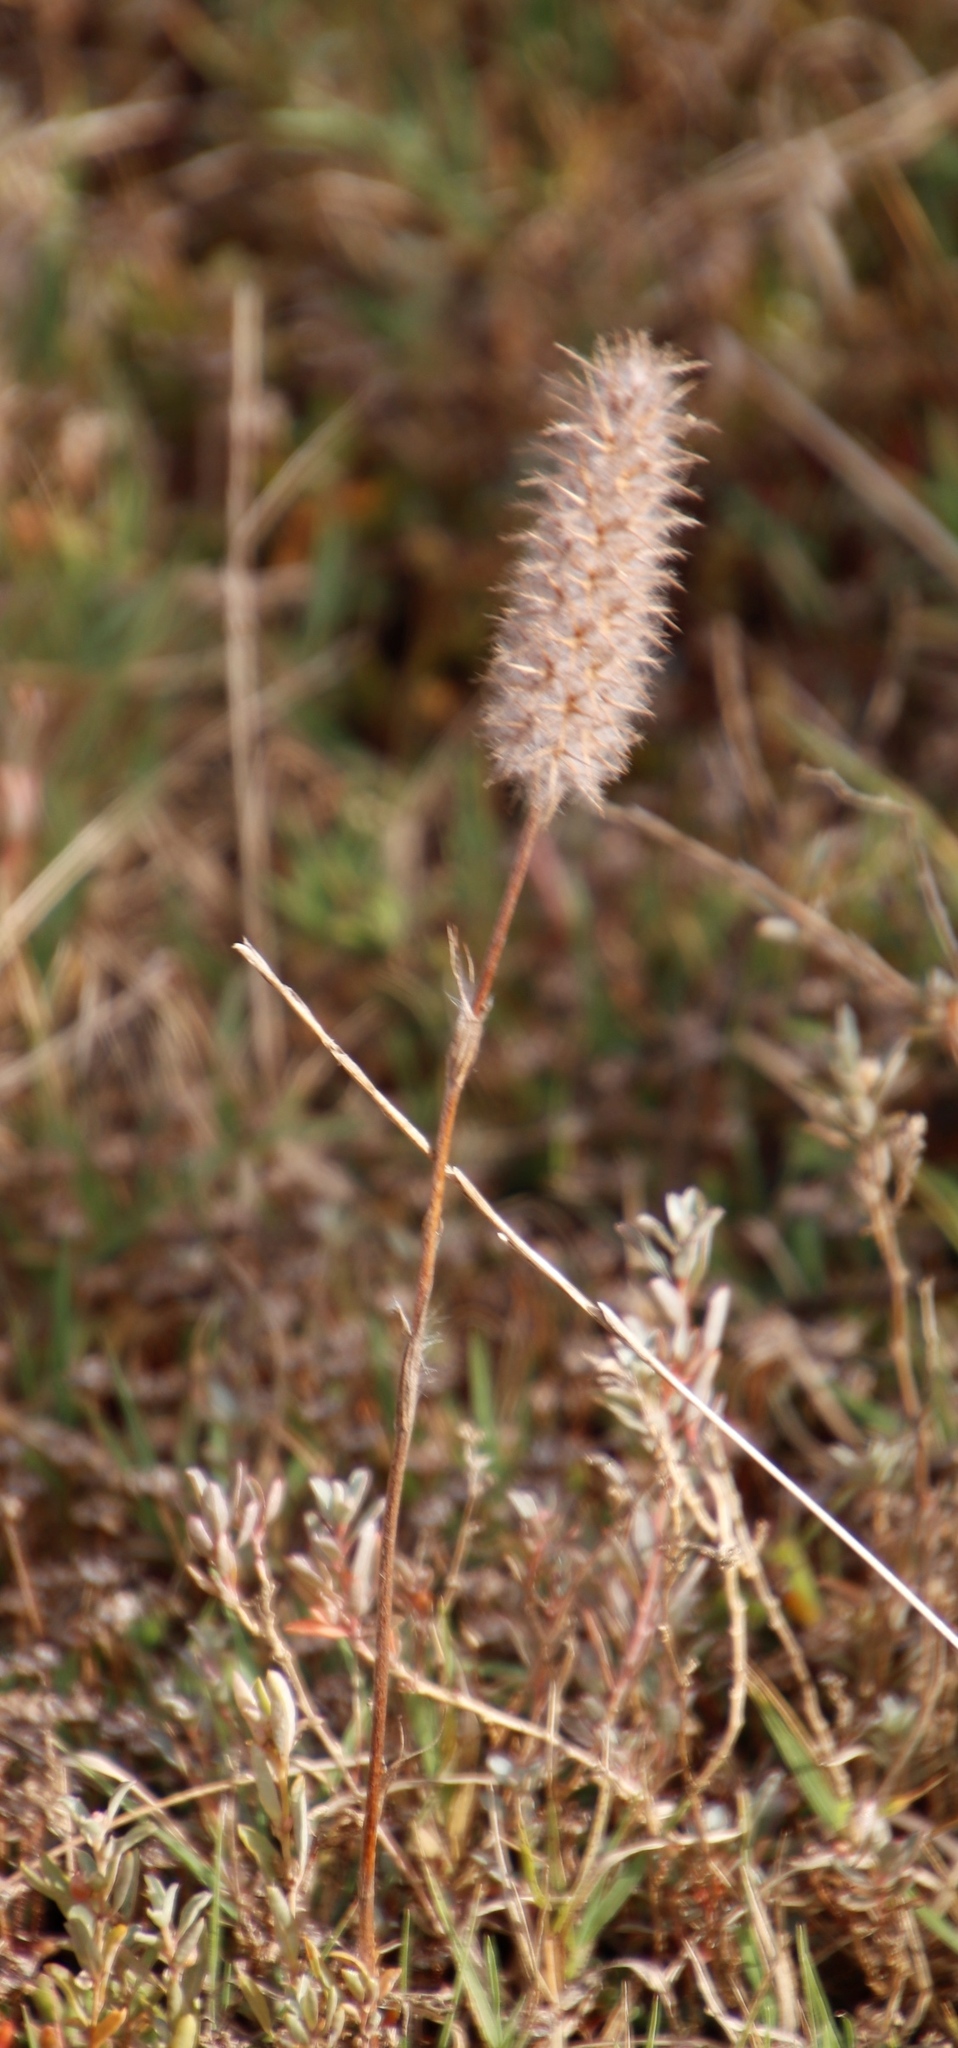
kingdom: Plantae
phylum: Tracheophyta
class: Magnoliopsida
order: Fabales
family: Fabaceae
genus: Trifolium
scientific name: Trifolium angustifolium
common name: Narrow clover
